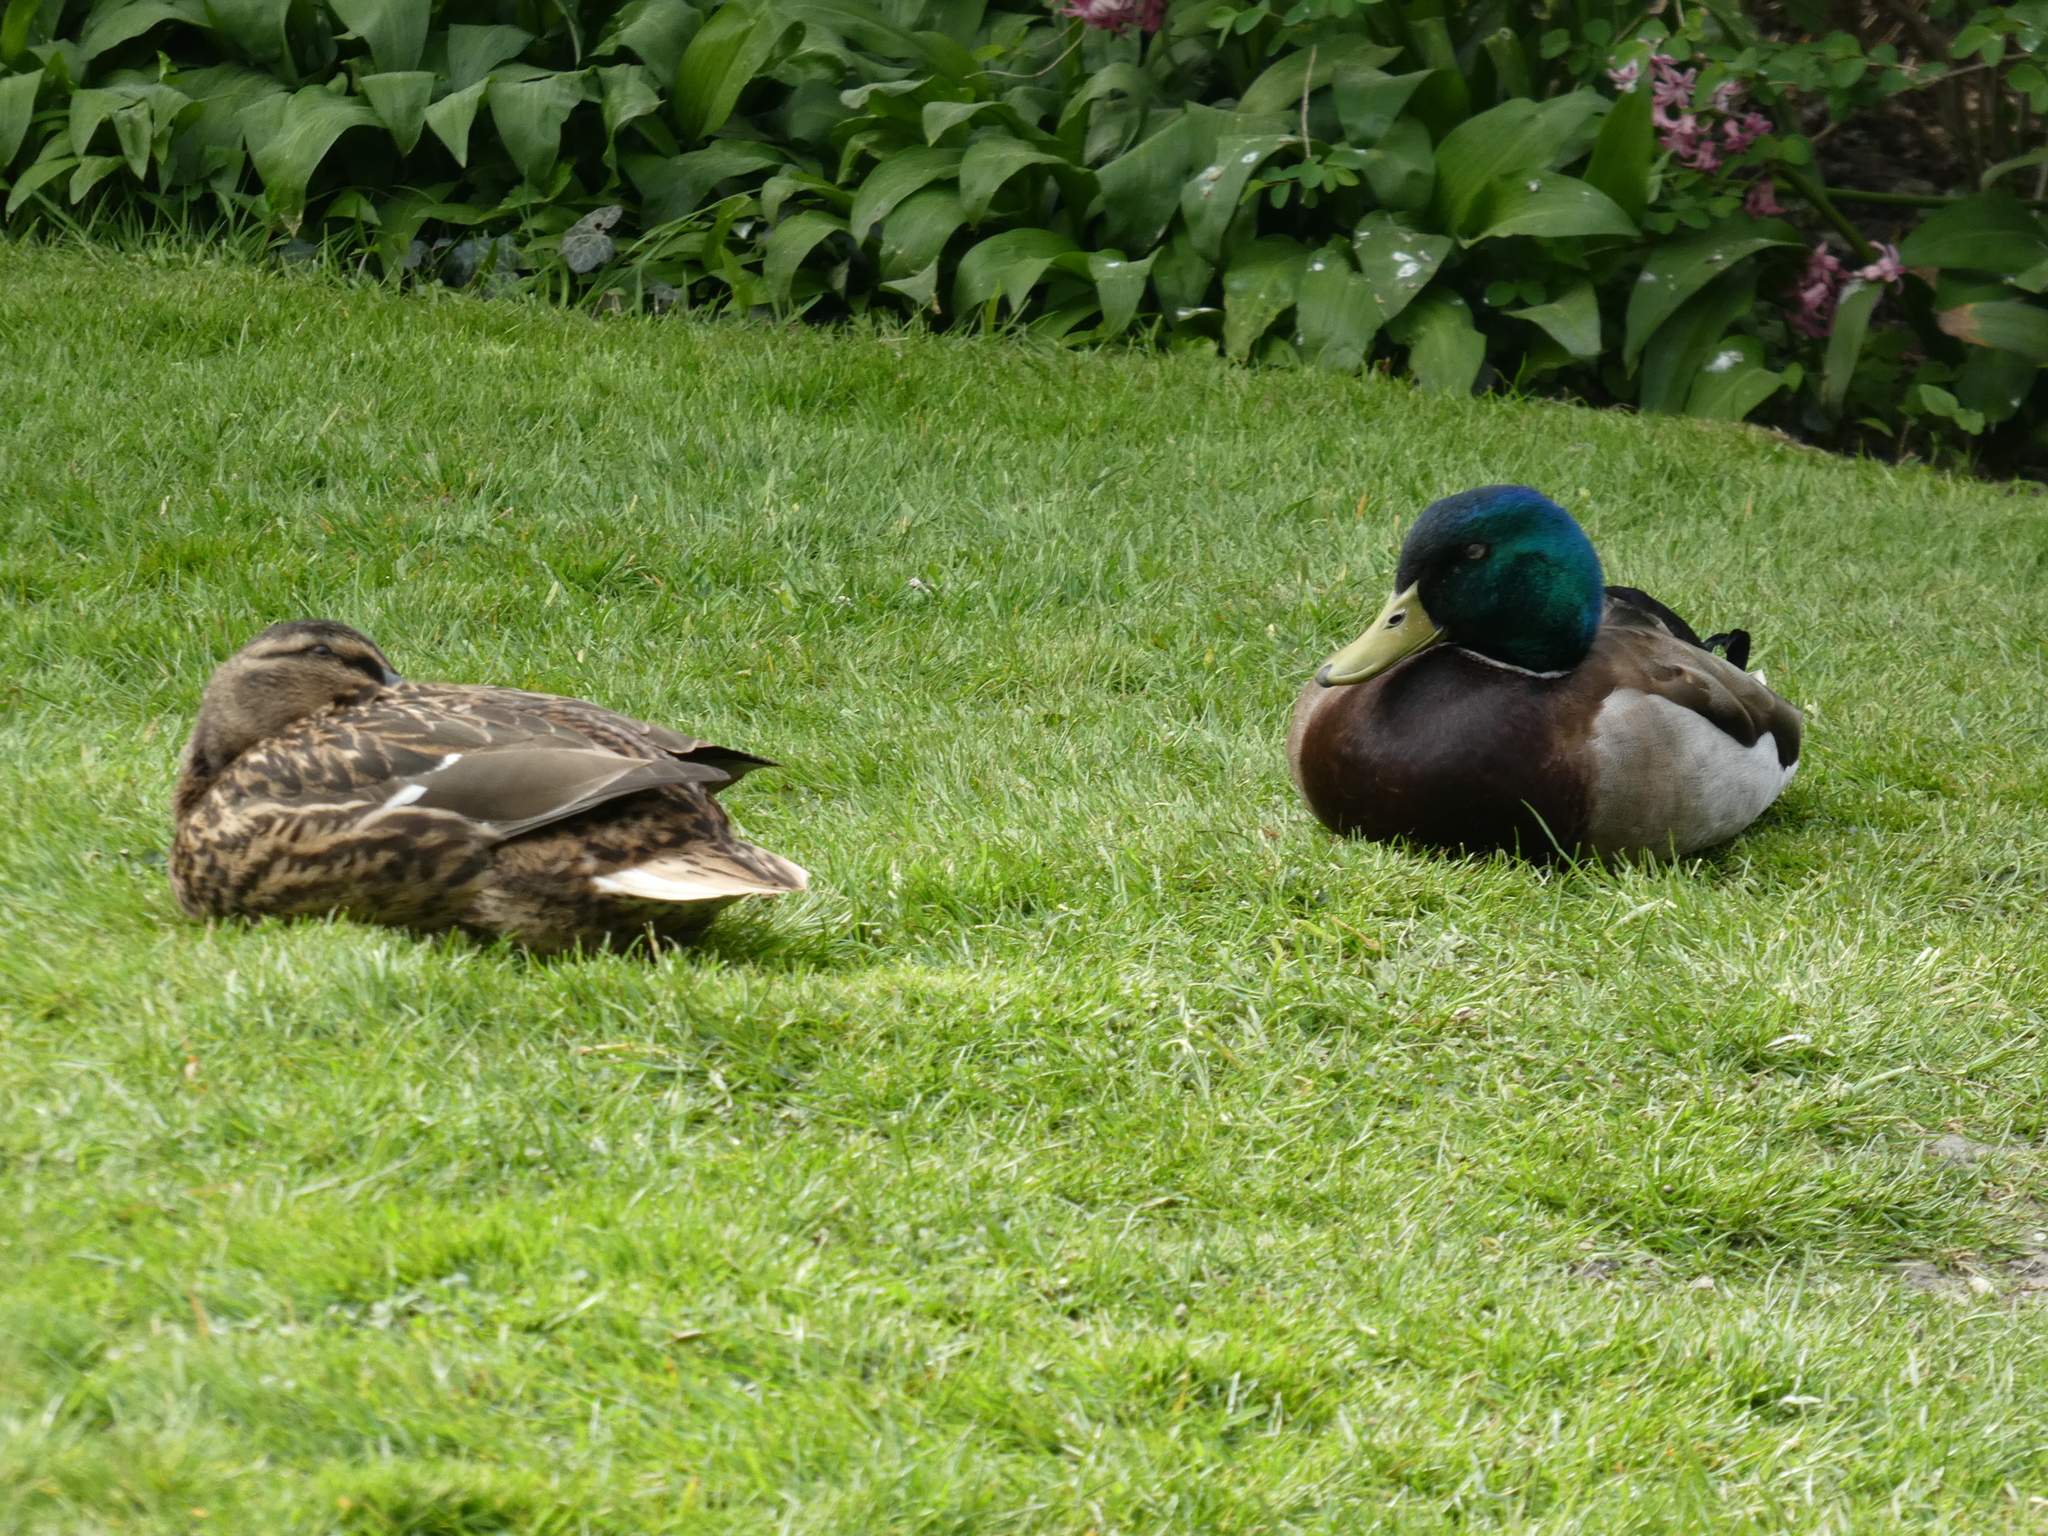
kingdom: Animalia
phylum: Chordata
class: Aves
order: Anseriformes
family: Anatidae
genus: Anas
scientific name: Anas platyrhynchos
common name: Mallard
